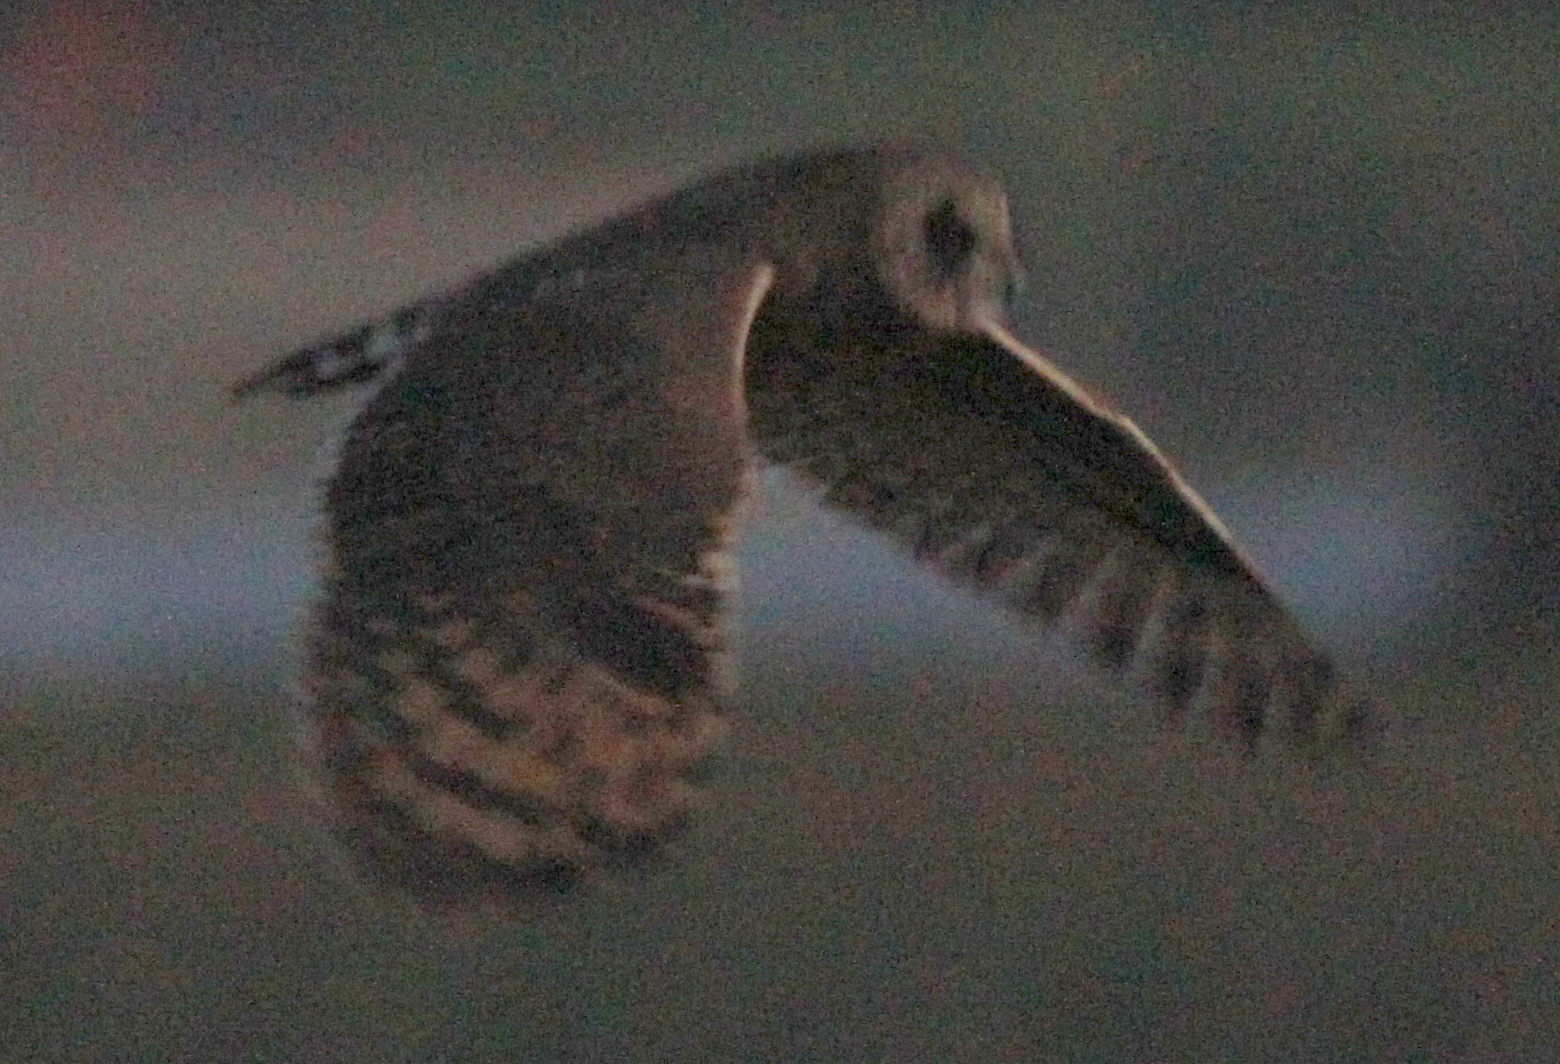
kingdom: Animalia
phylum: Chordata
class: Aves
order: Strigiformes
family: Strigidae
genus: Asio
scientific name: Asio capensis
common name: Marsh owl
